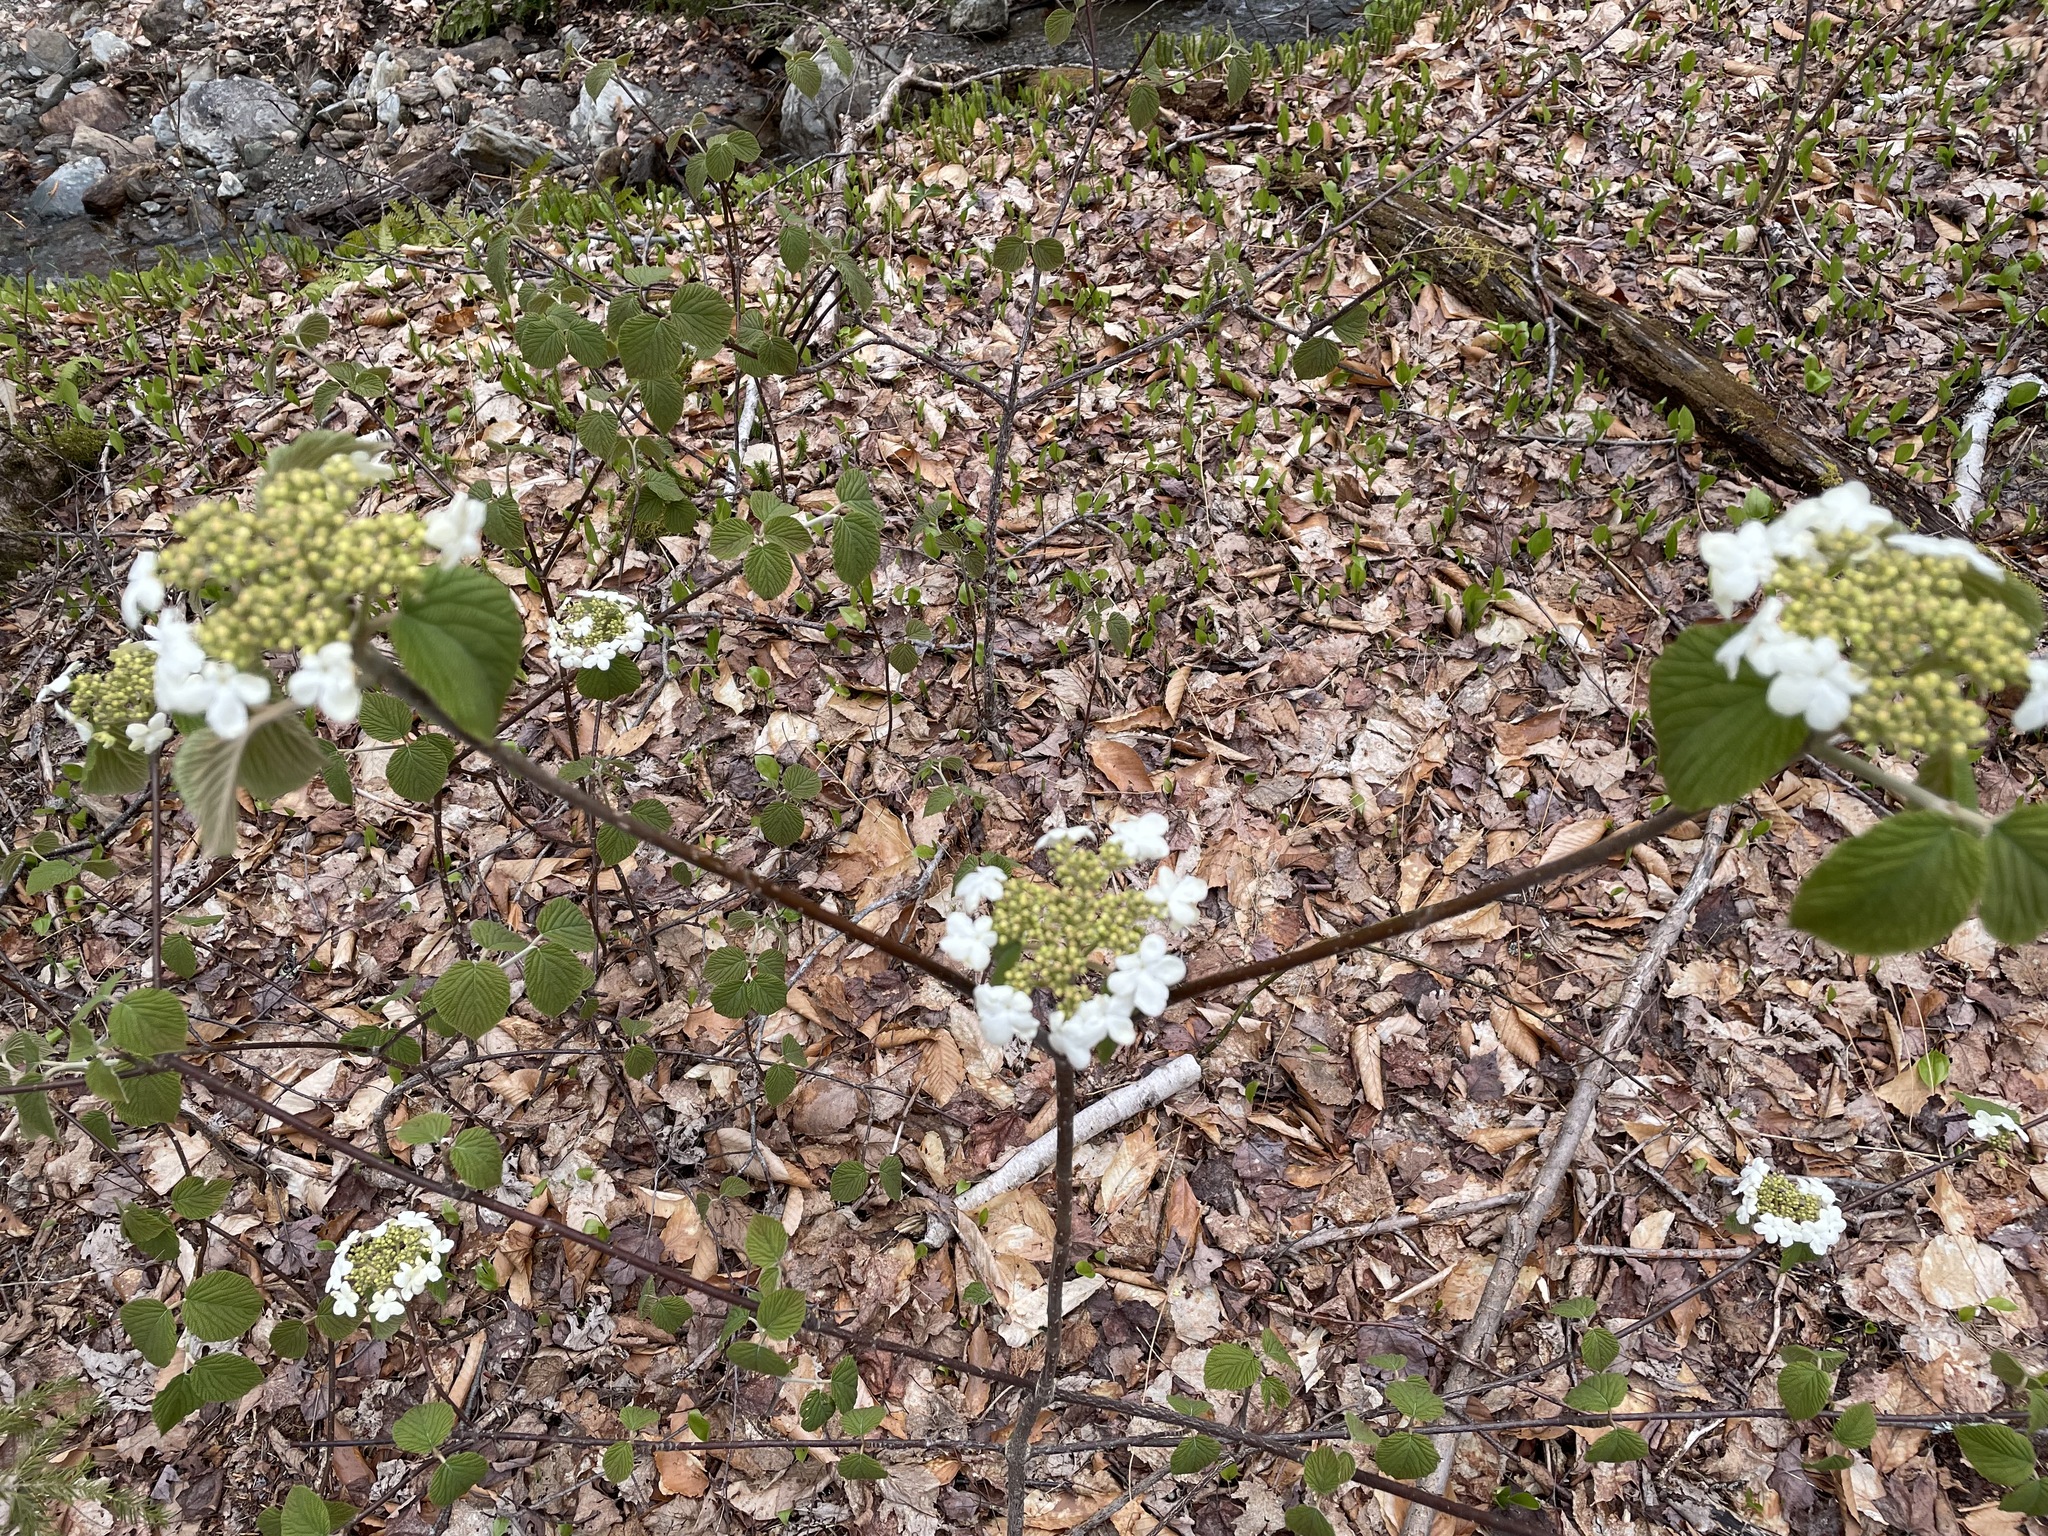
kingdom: Plantae
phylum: Tracheophyta
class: Magnoliopsida
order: Dipsacales
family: Viburnaceae
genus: Viburnum
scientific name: Viburnum lantanoides
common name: Hobblebush
